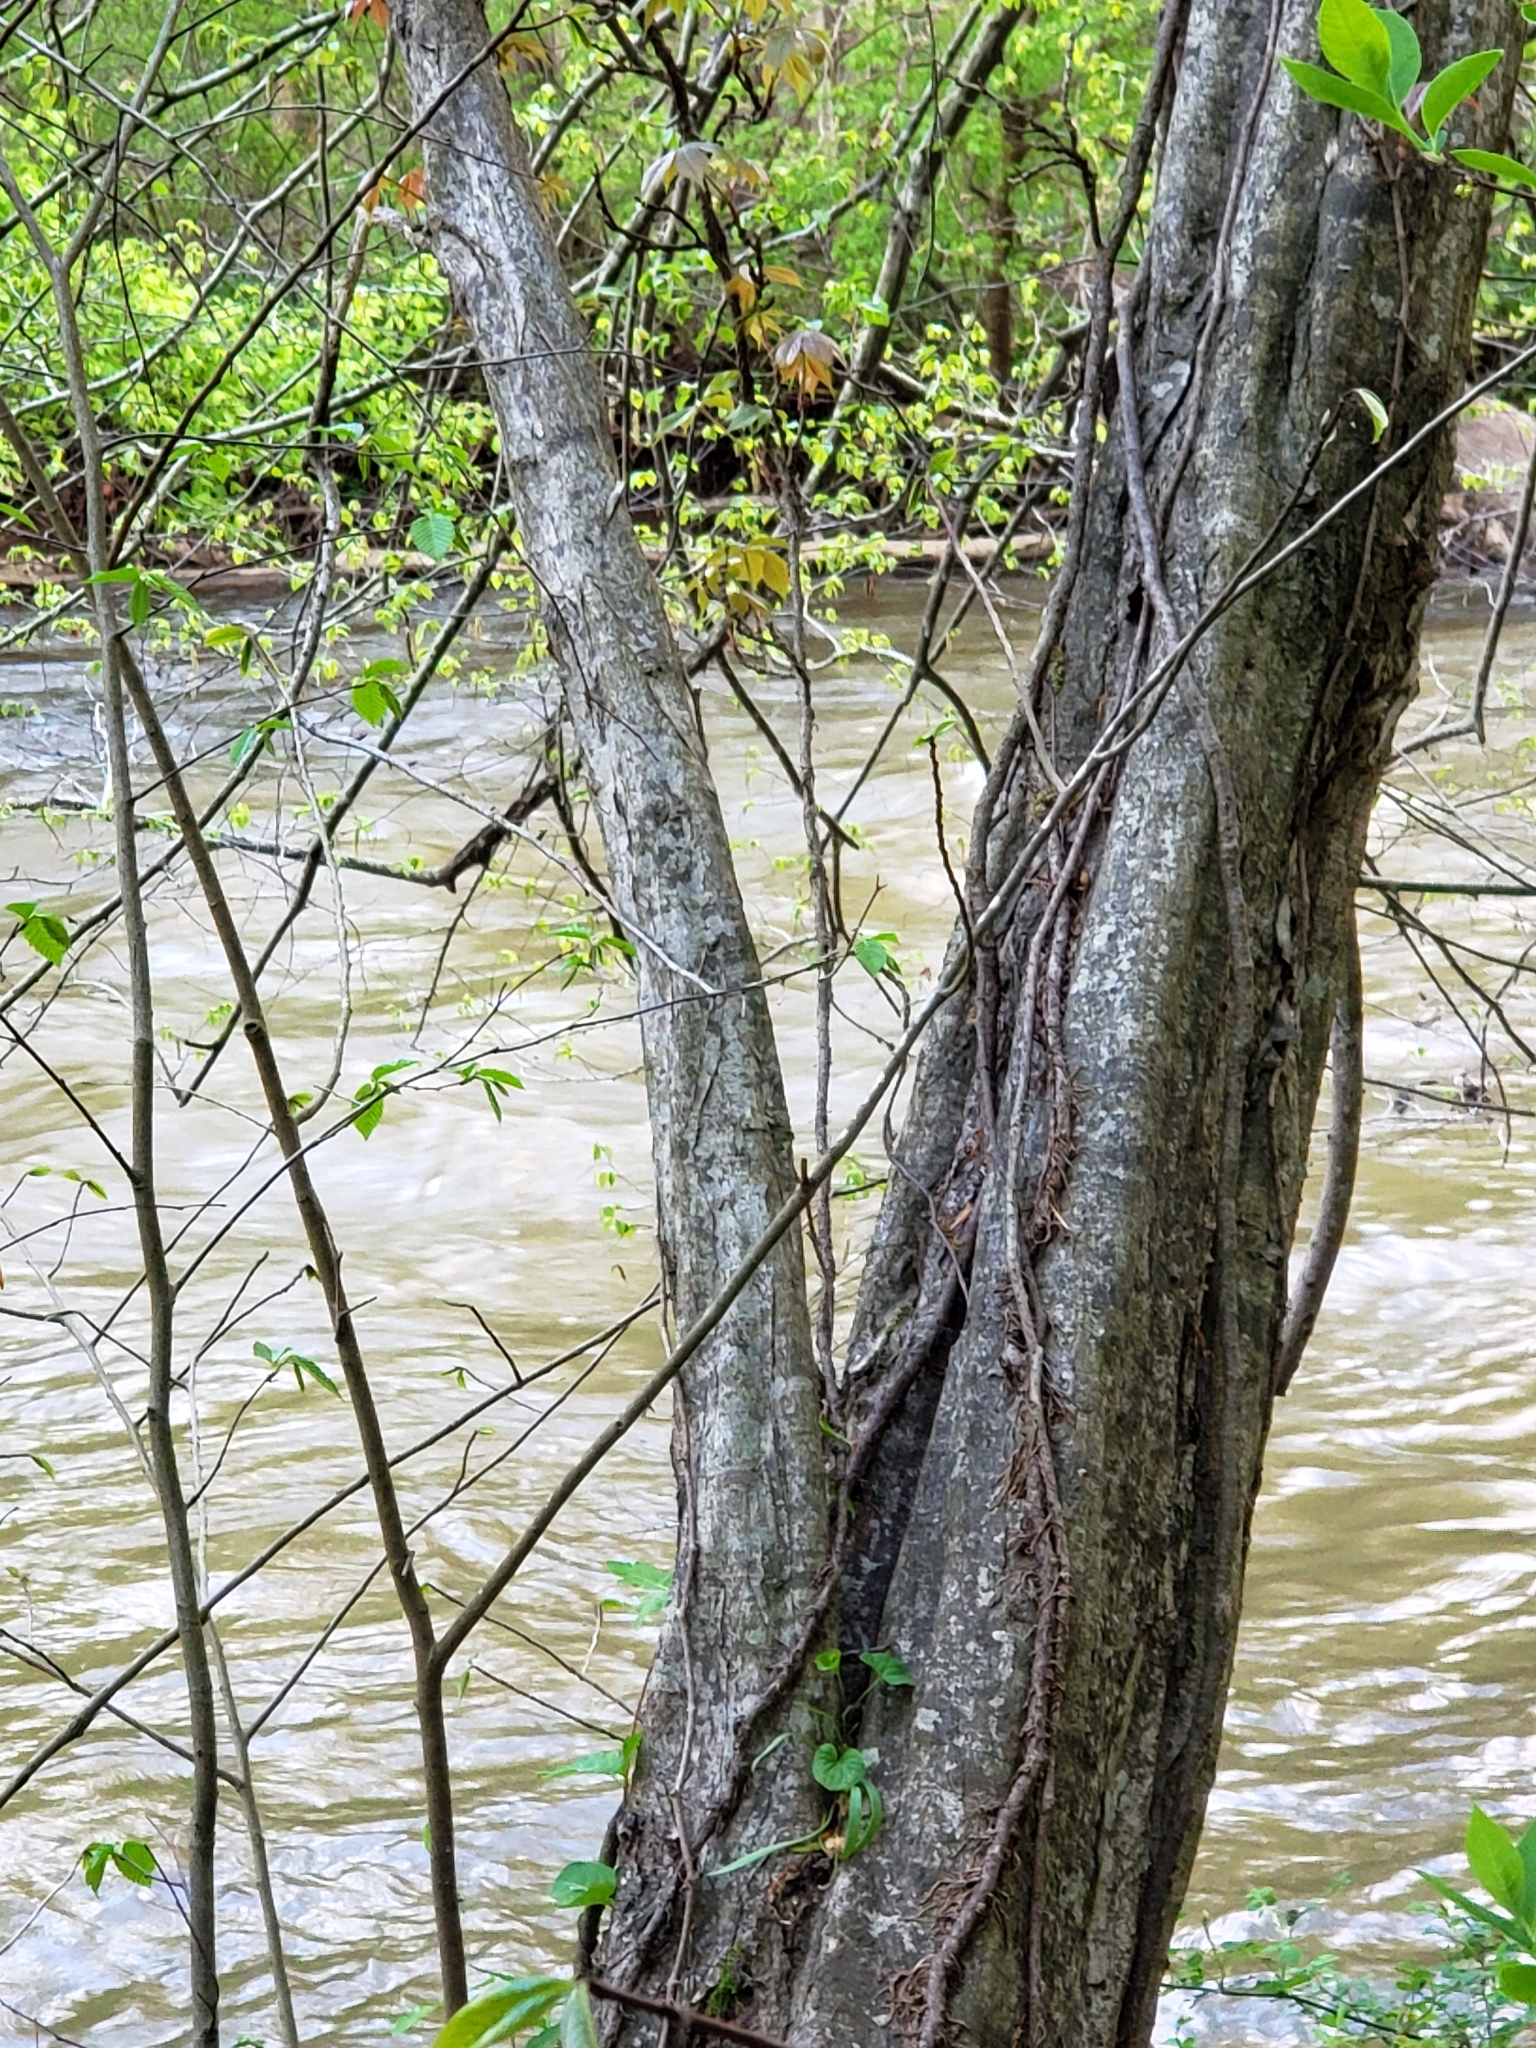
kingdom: Plantae
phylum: Tracheophyta
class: Magnoliopsida
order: Fagales
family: Betulaceae
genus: Carpinus
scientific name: Carpinus caroliniana
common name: American hornbeam
